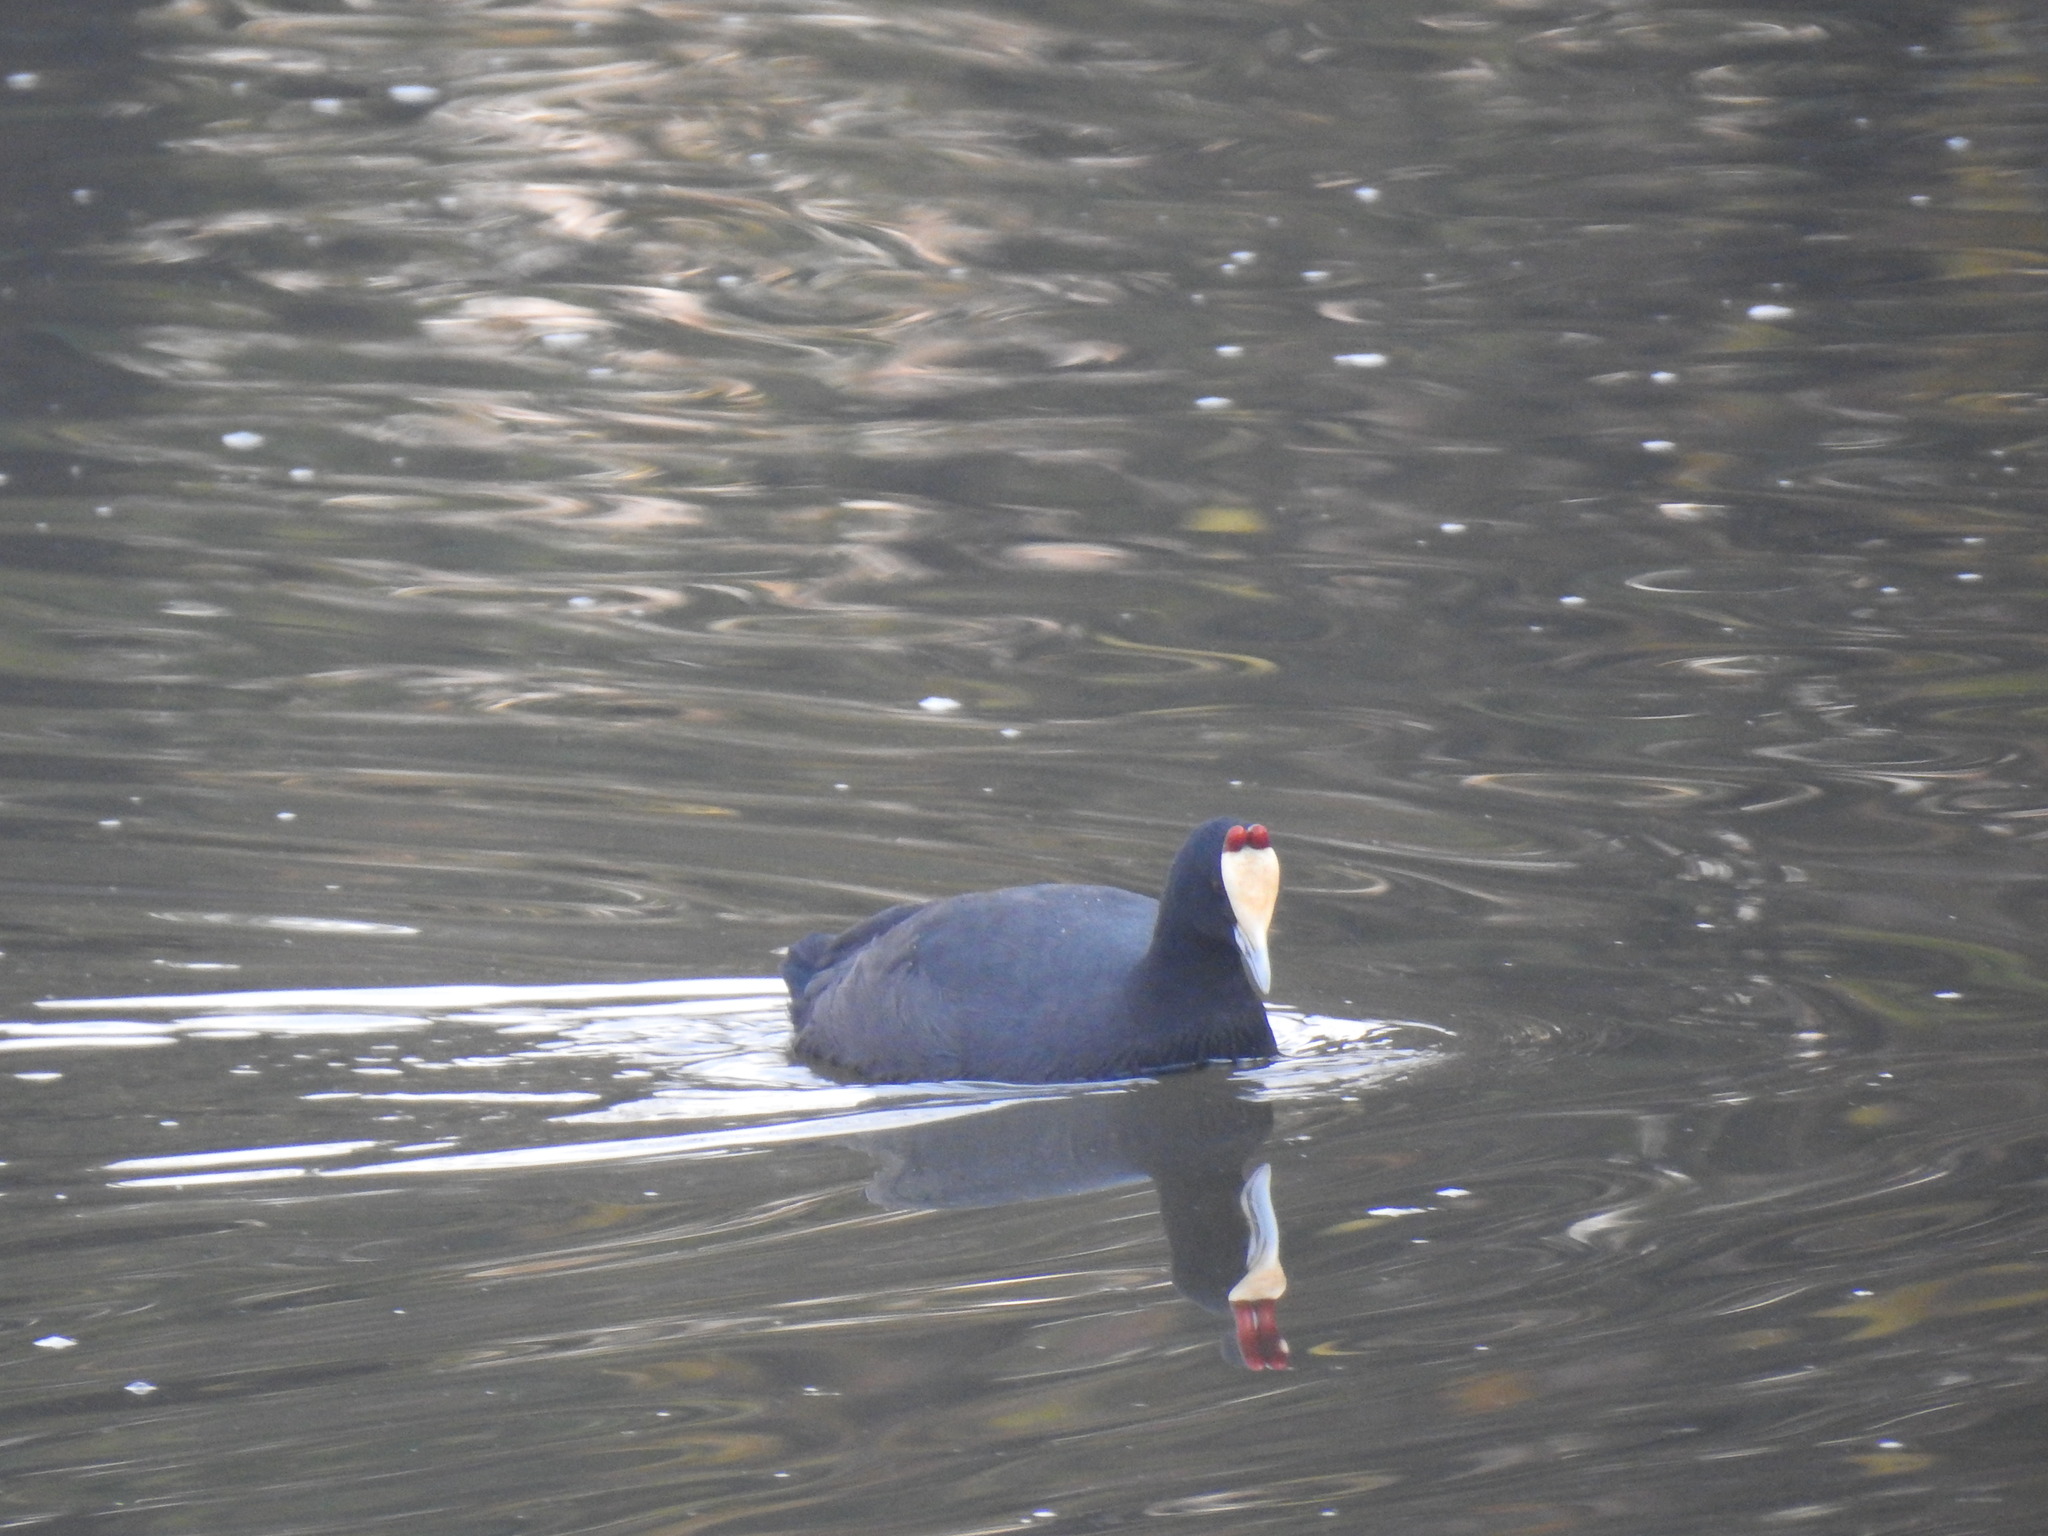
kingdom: Animalia
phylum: Chordata
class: Aves
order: Gruiformes
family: Rallidae
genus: Fulica
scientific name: Fulica cristata
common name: Red-knobbed coot
